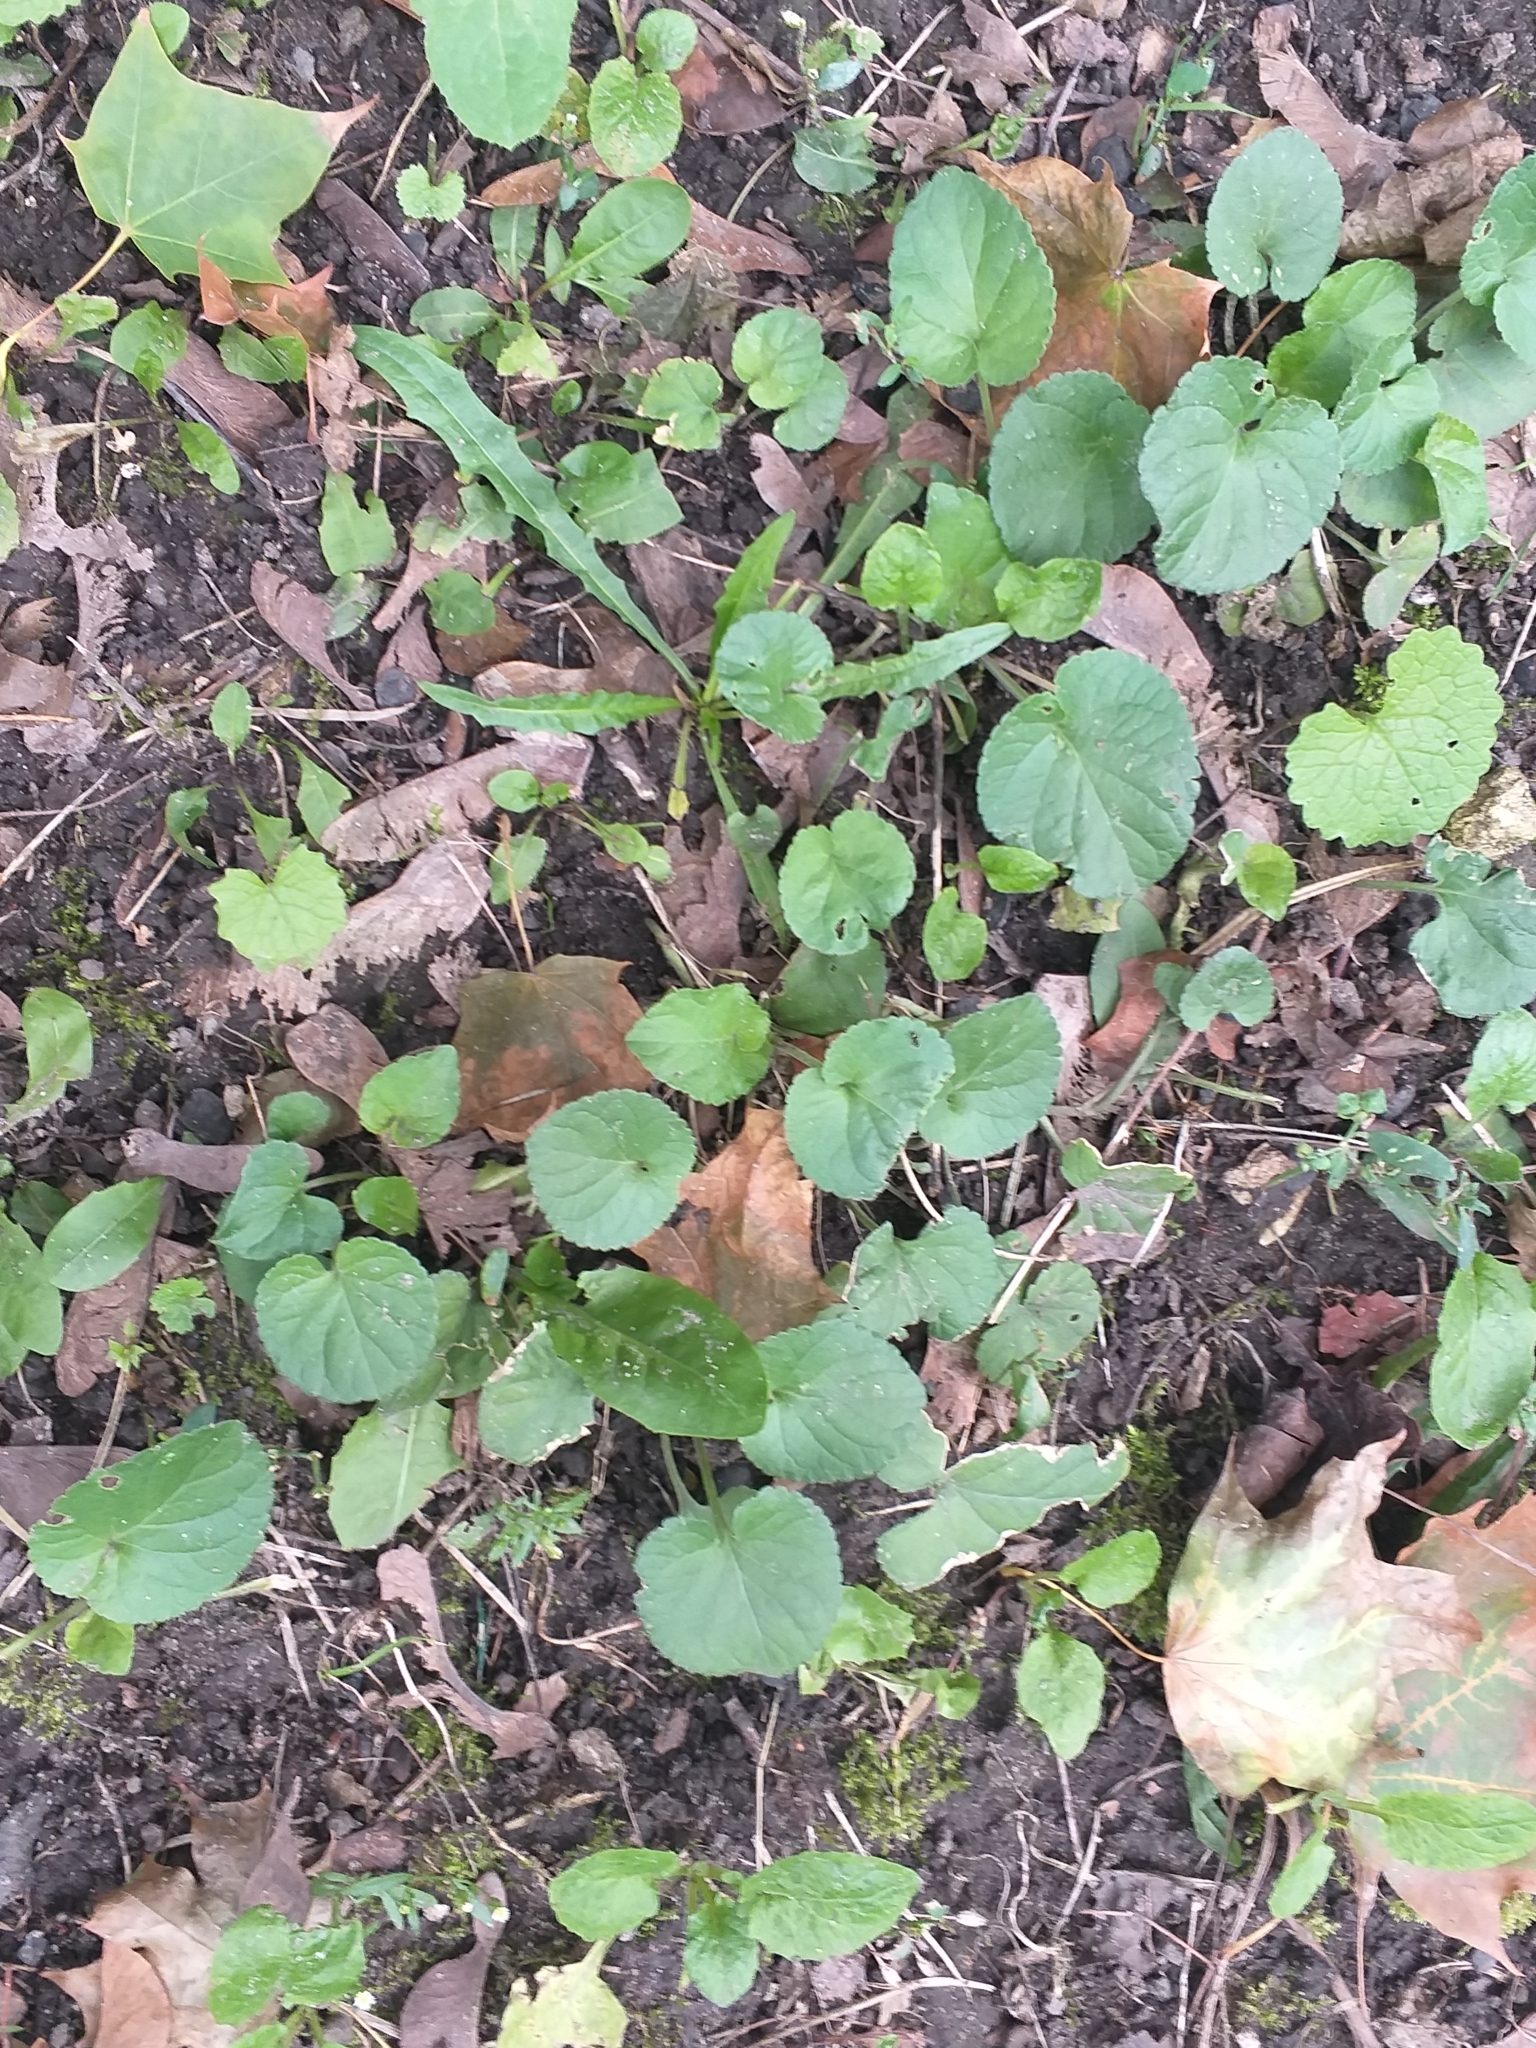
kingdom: Plantae
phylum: Tracheophyta
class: Magnoliopsida
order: Malpighiales
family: Violaceae
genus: Viola
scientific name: Viola odorata
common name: Sweet violet
